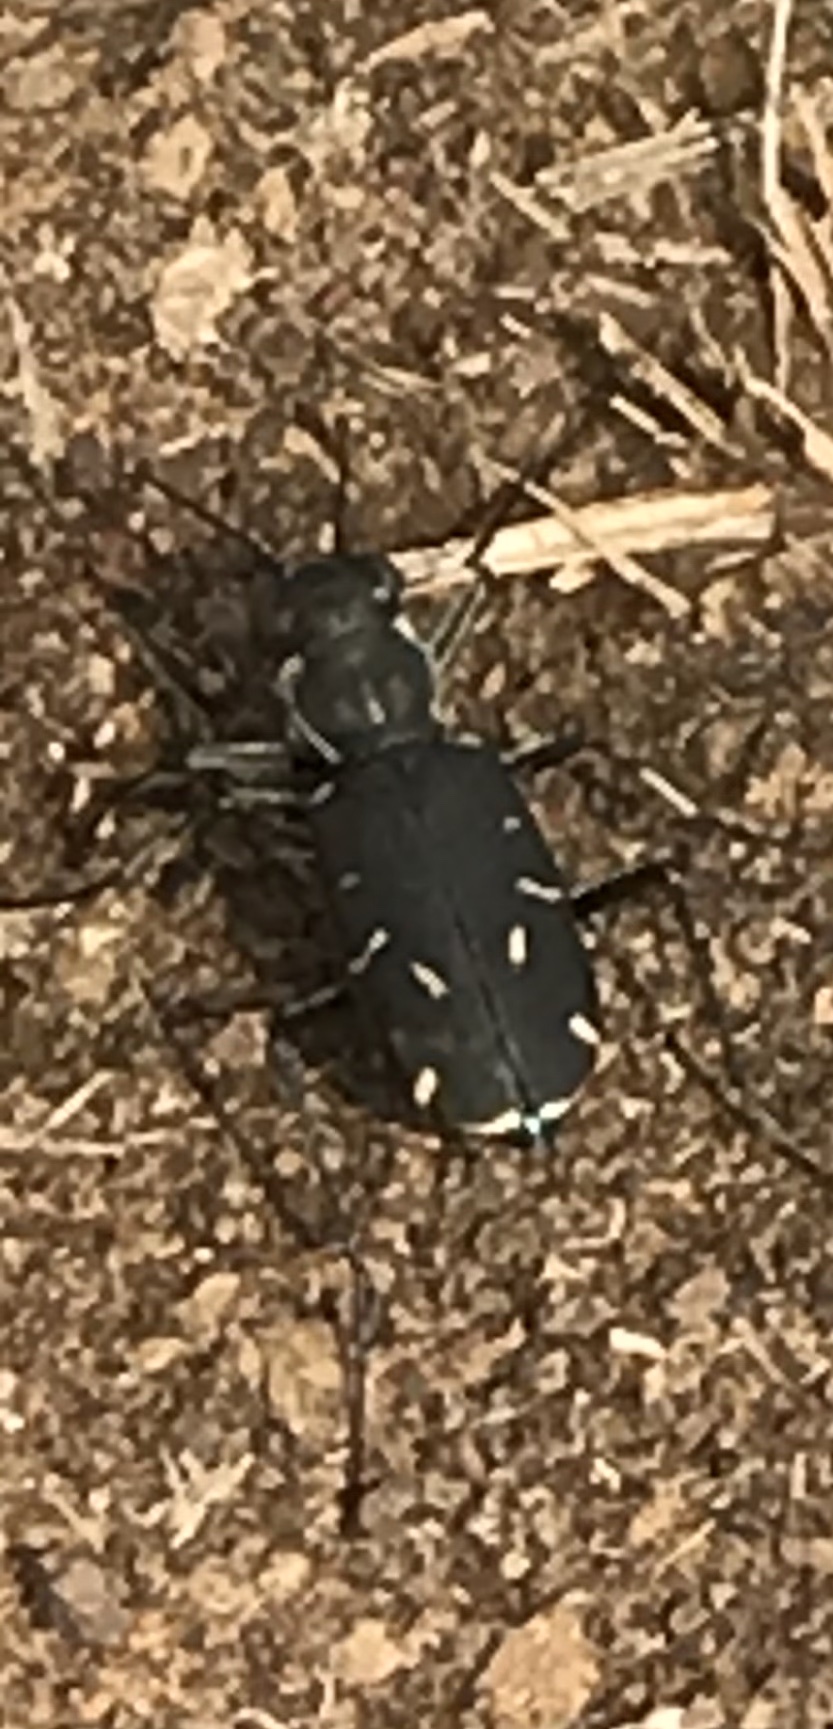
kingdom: Animalia
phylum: Arthropoda
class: Insecta
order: Coleoptera
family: Carabidae
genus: Cicindela
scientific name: Cicindela obsoleta
